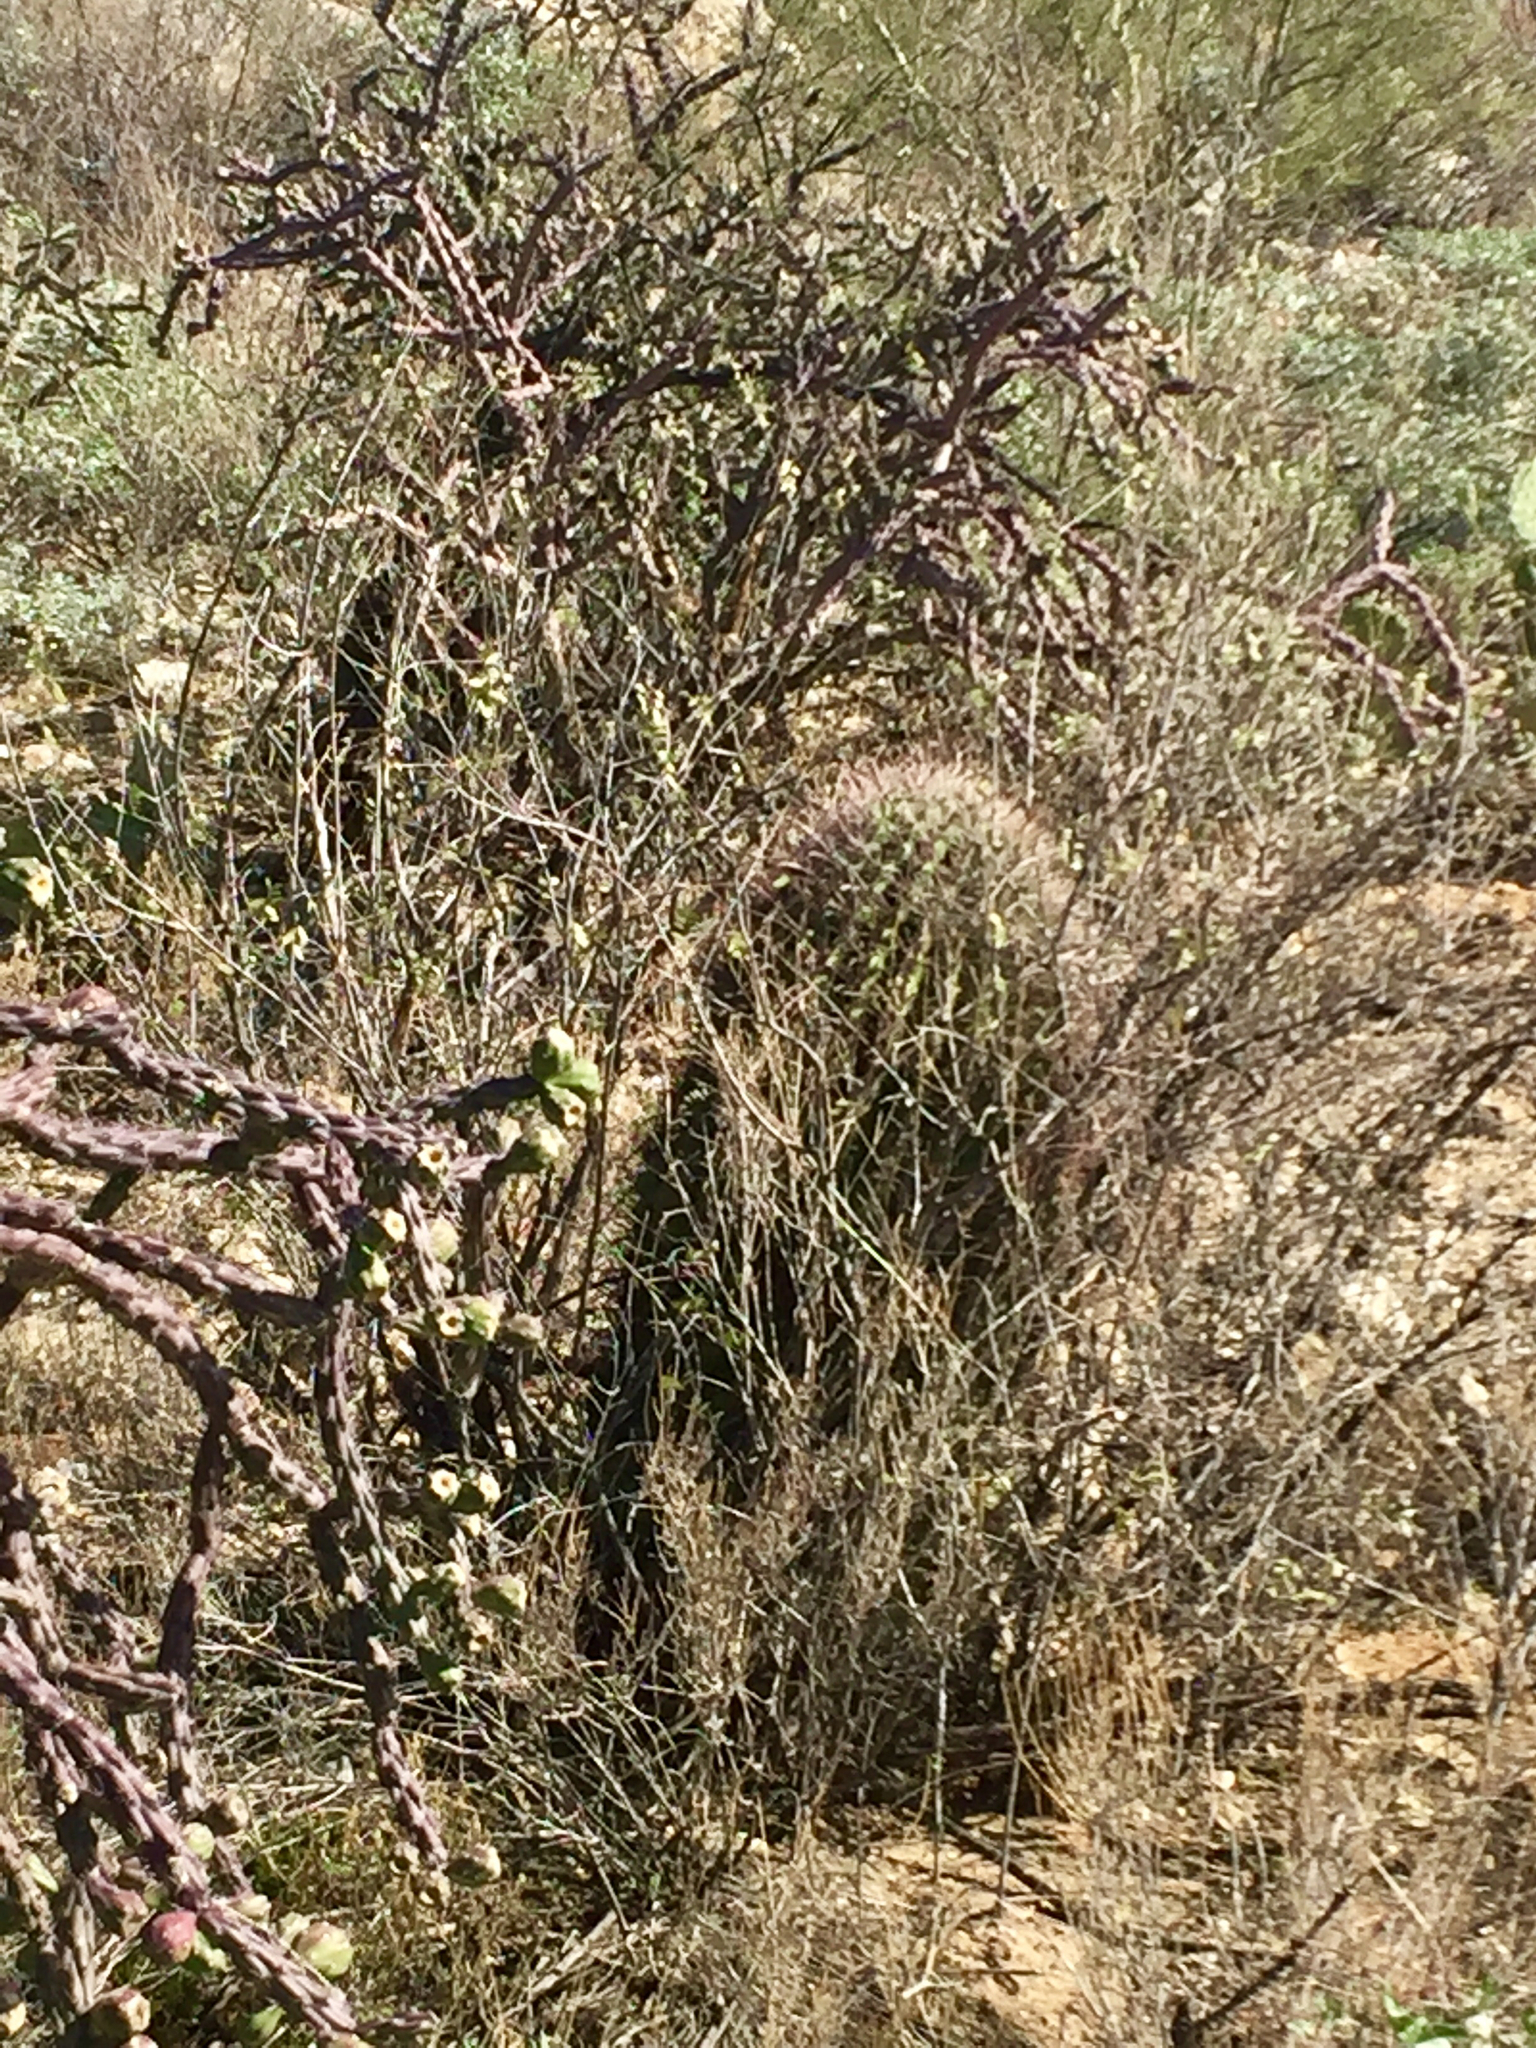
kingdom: Plantae
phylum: Tracheophyta
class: Magnoliopsida
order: Caryophyllales
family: Cactaceae
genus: Ferocactus
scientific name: Ferocactus wislizeni
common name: Candy barrel cactus
